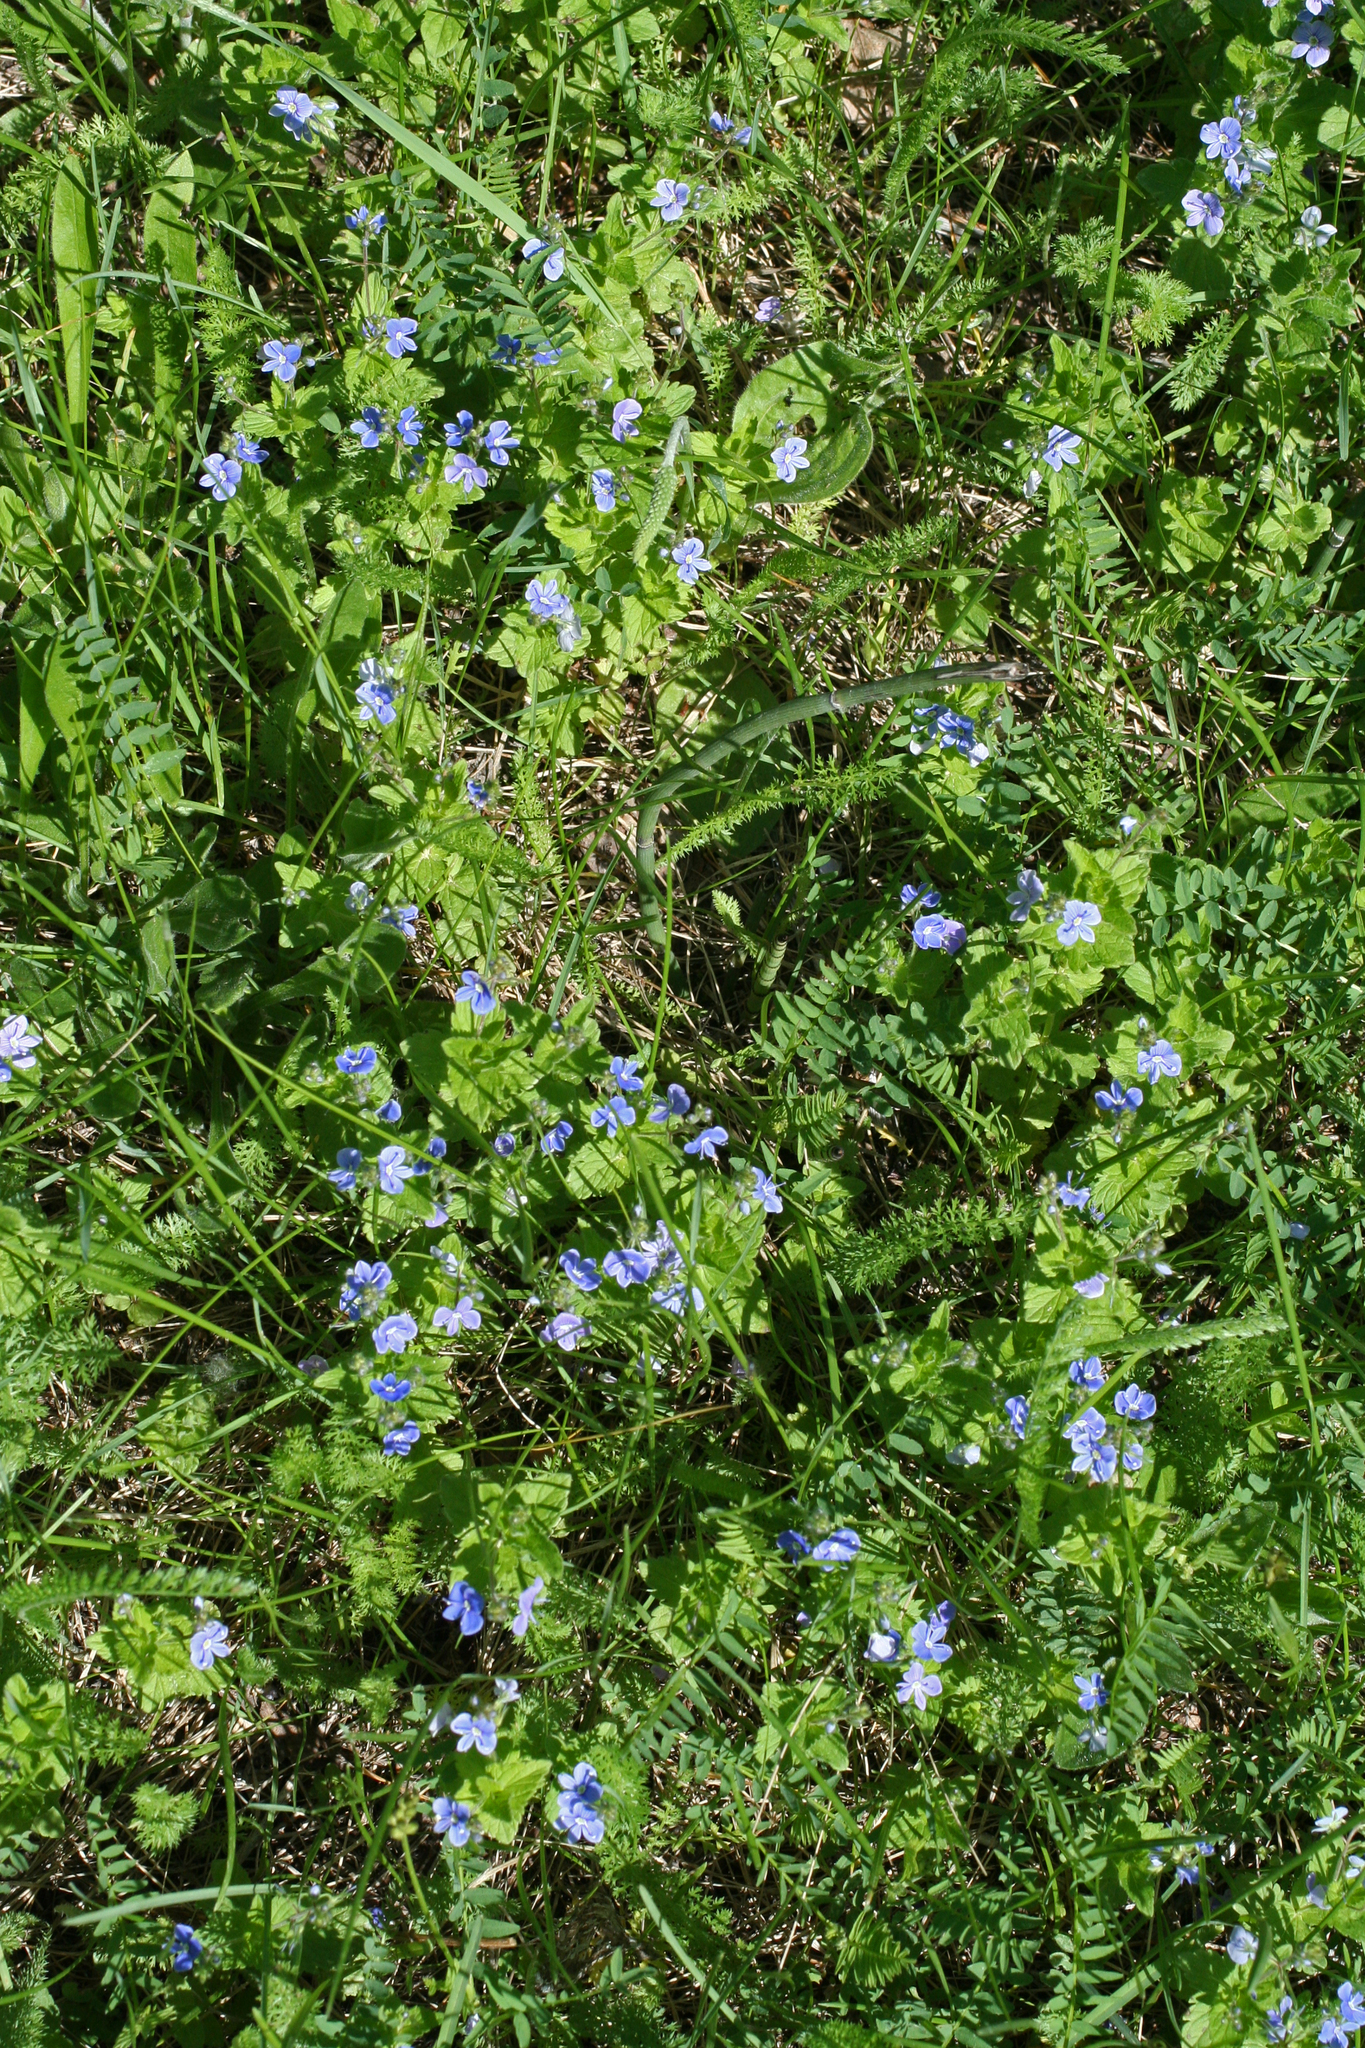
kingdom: Plantae
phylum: Tracheophyta
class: Magnoliopsida
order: Lamiales
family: Plantaginaceae
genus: Veronica
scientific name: Veronica chamaedrys
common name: Germander speedwell
